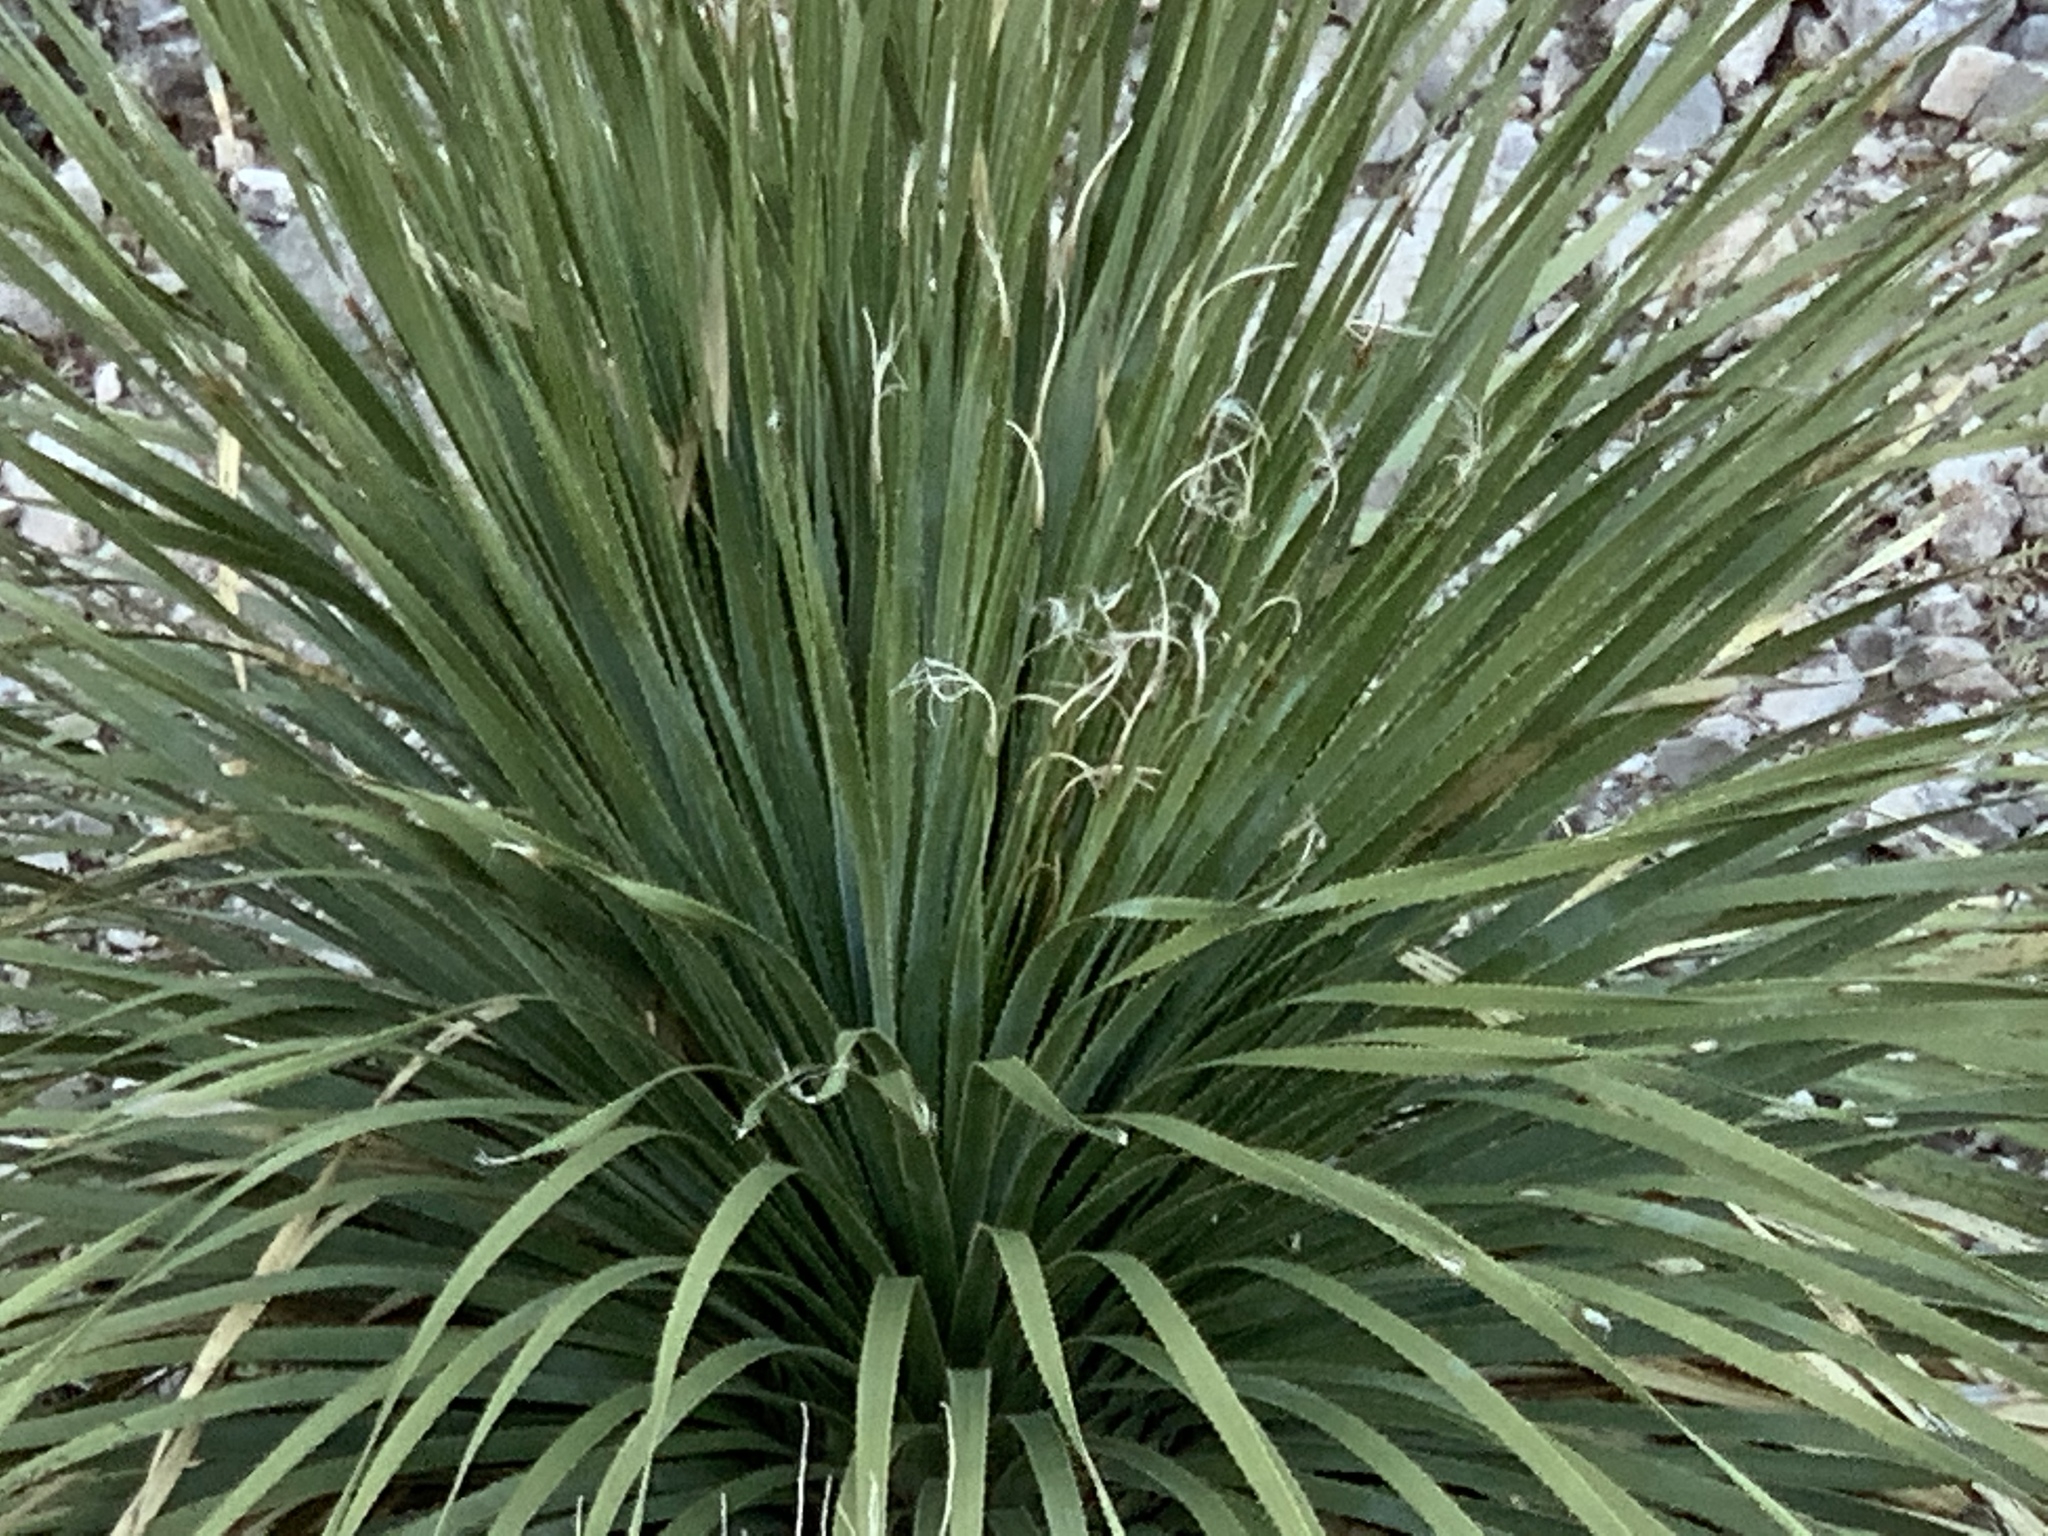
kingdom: Plantae
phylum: Tracheophyta
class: Liliopsida
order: Asparagales
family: Asparagaceae
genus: Dasylirion
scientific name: Dasylirion wheeleri
